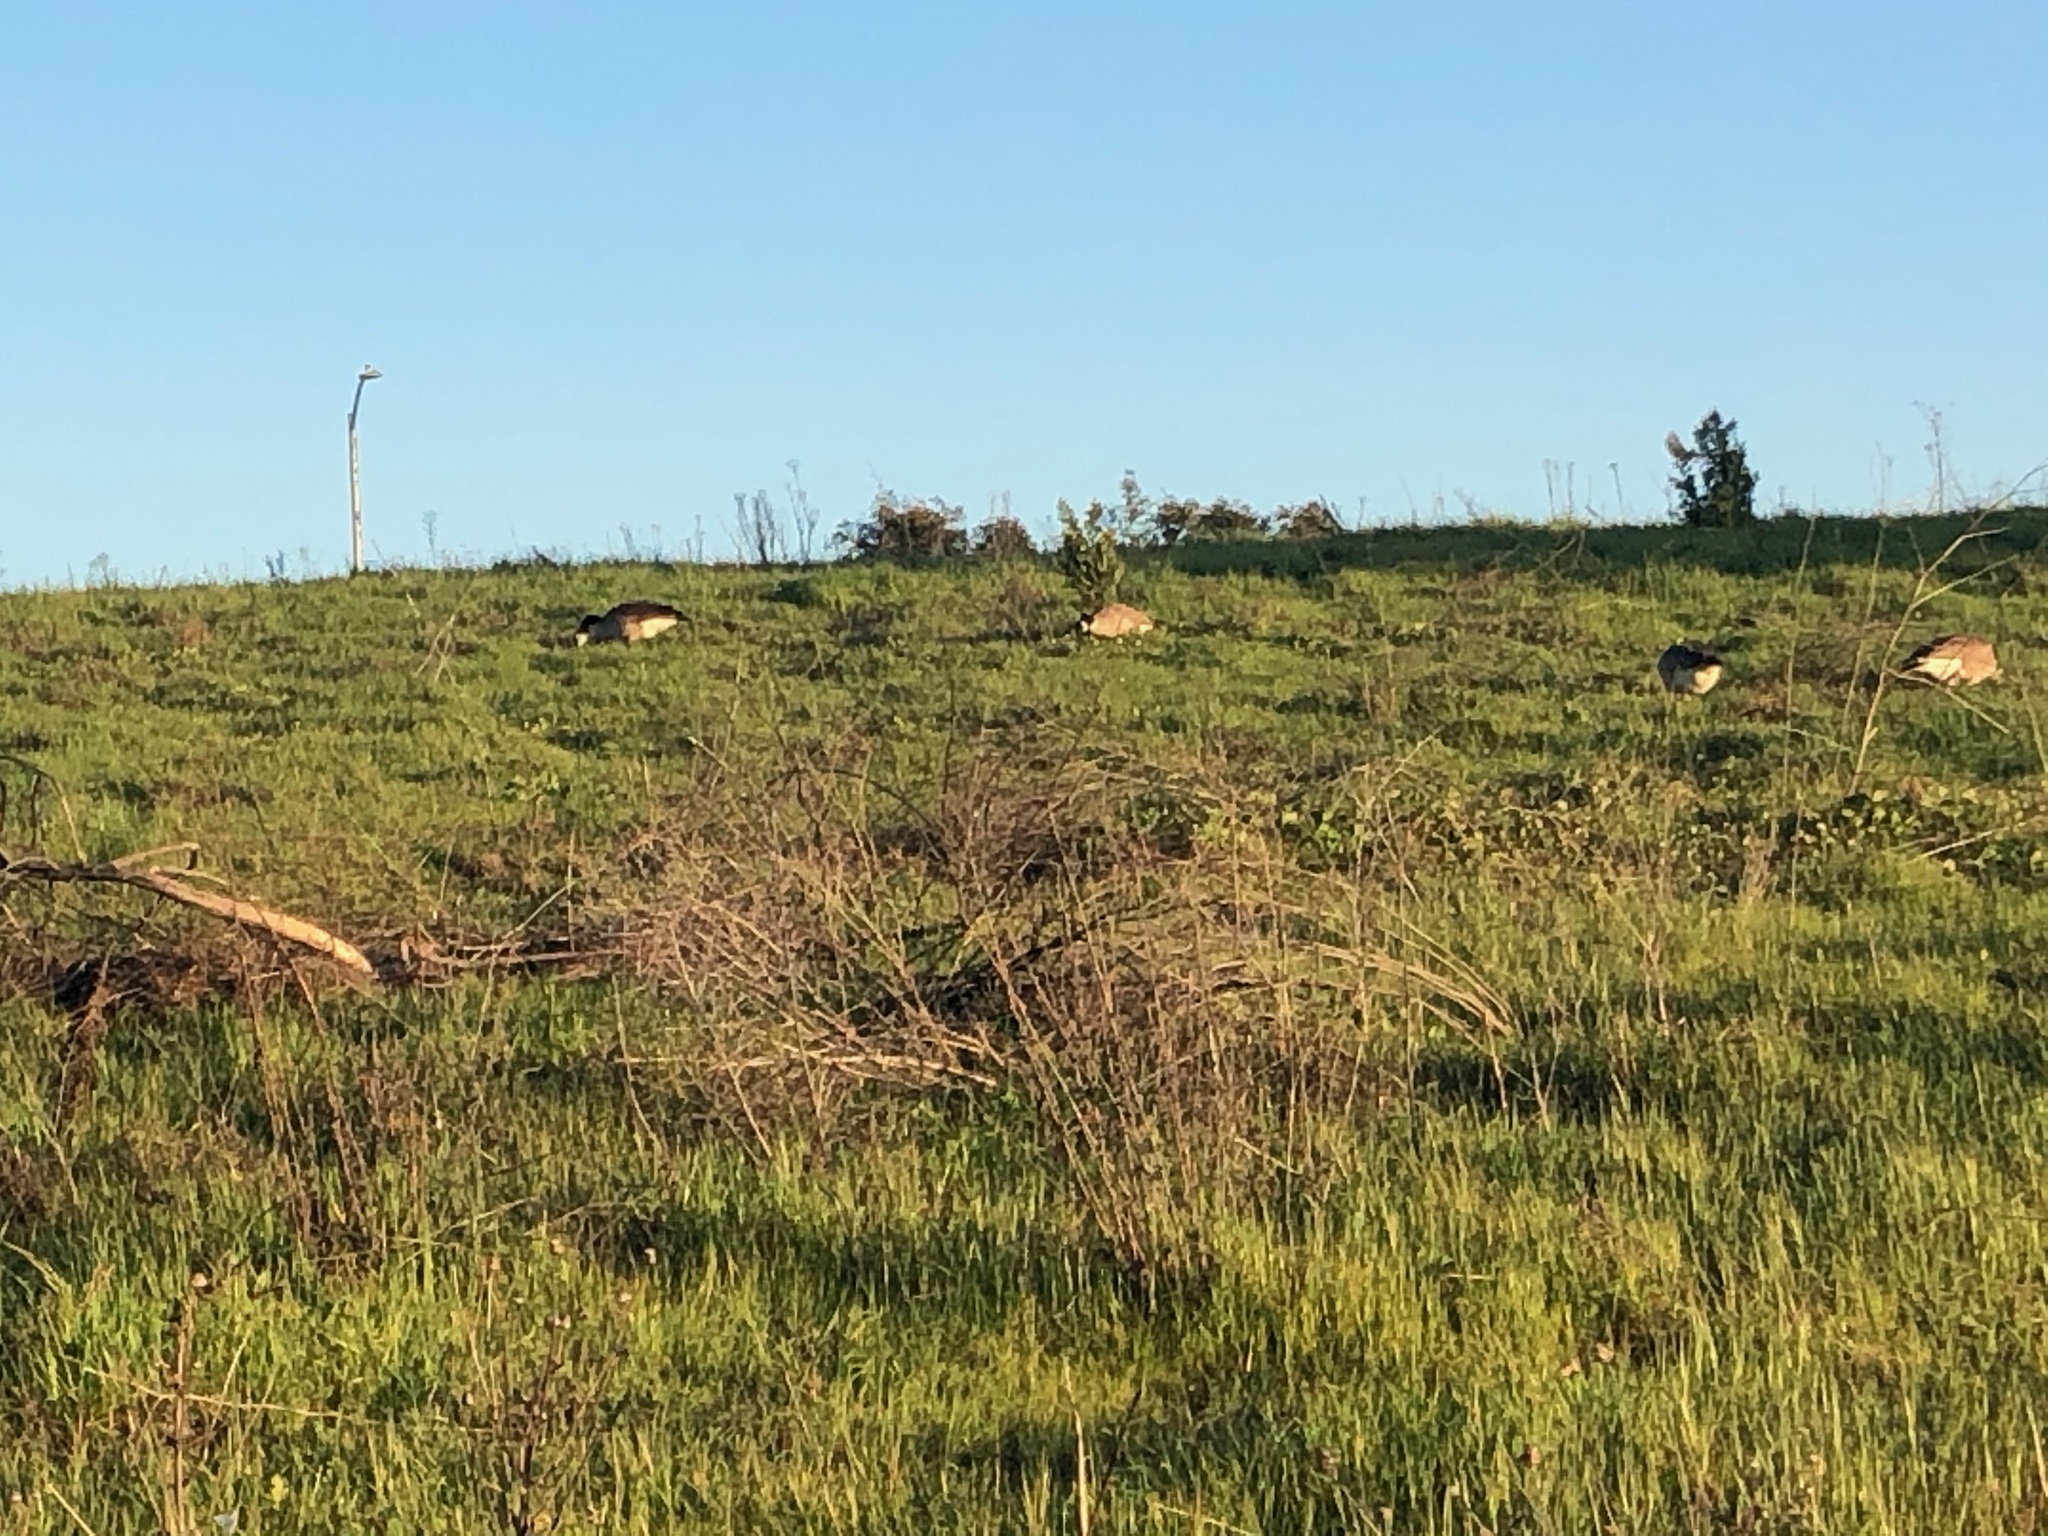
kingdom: Animalia
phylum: Chordata
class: Aves
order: Anseriformes
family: Anatidae
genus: Branta
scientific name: Branta canadensis
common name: Canada goose
